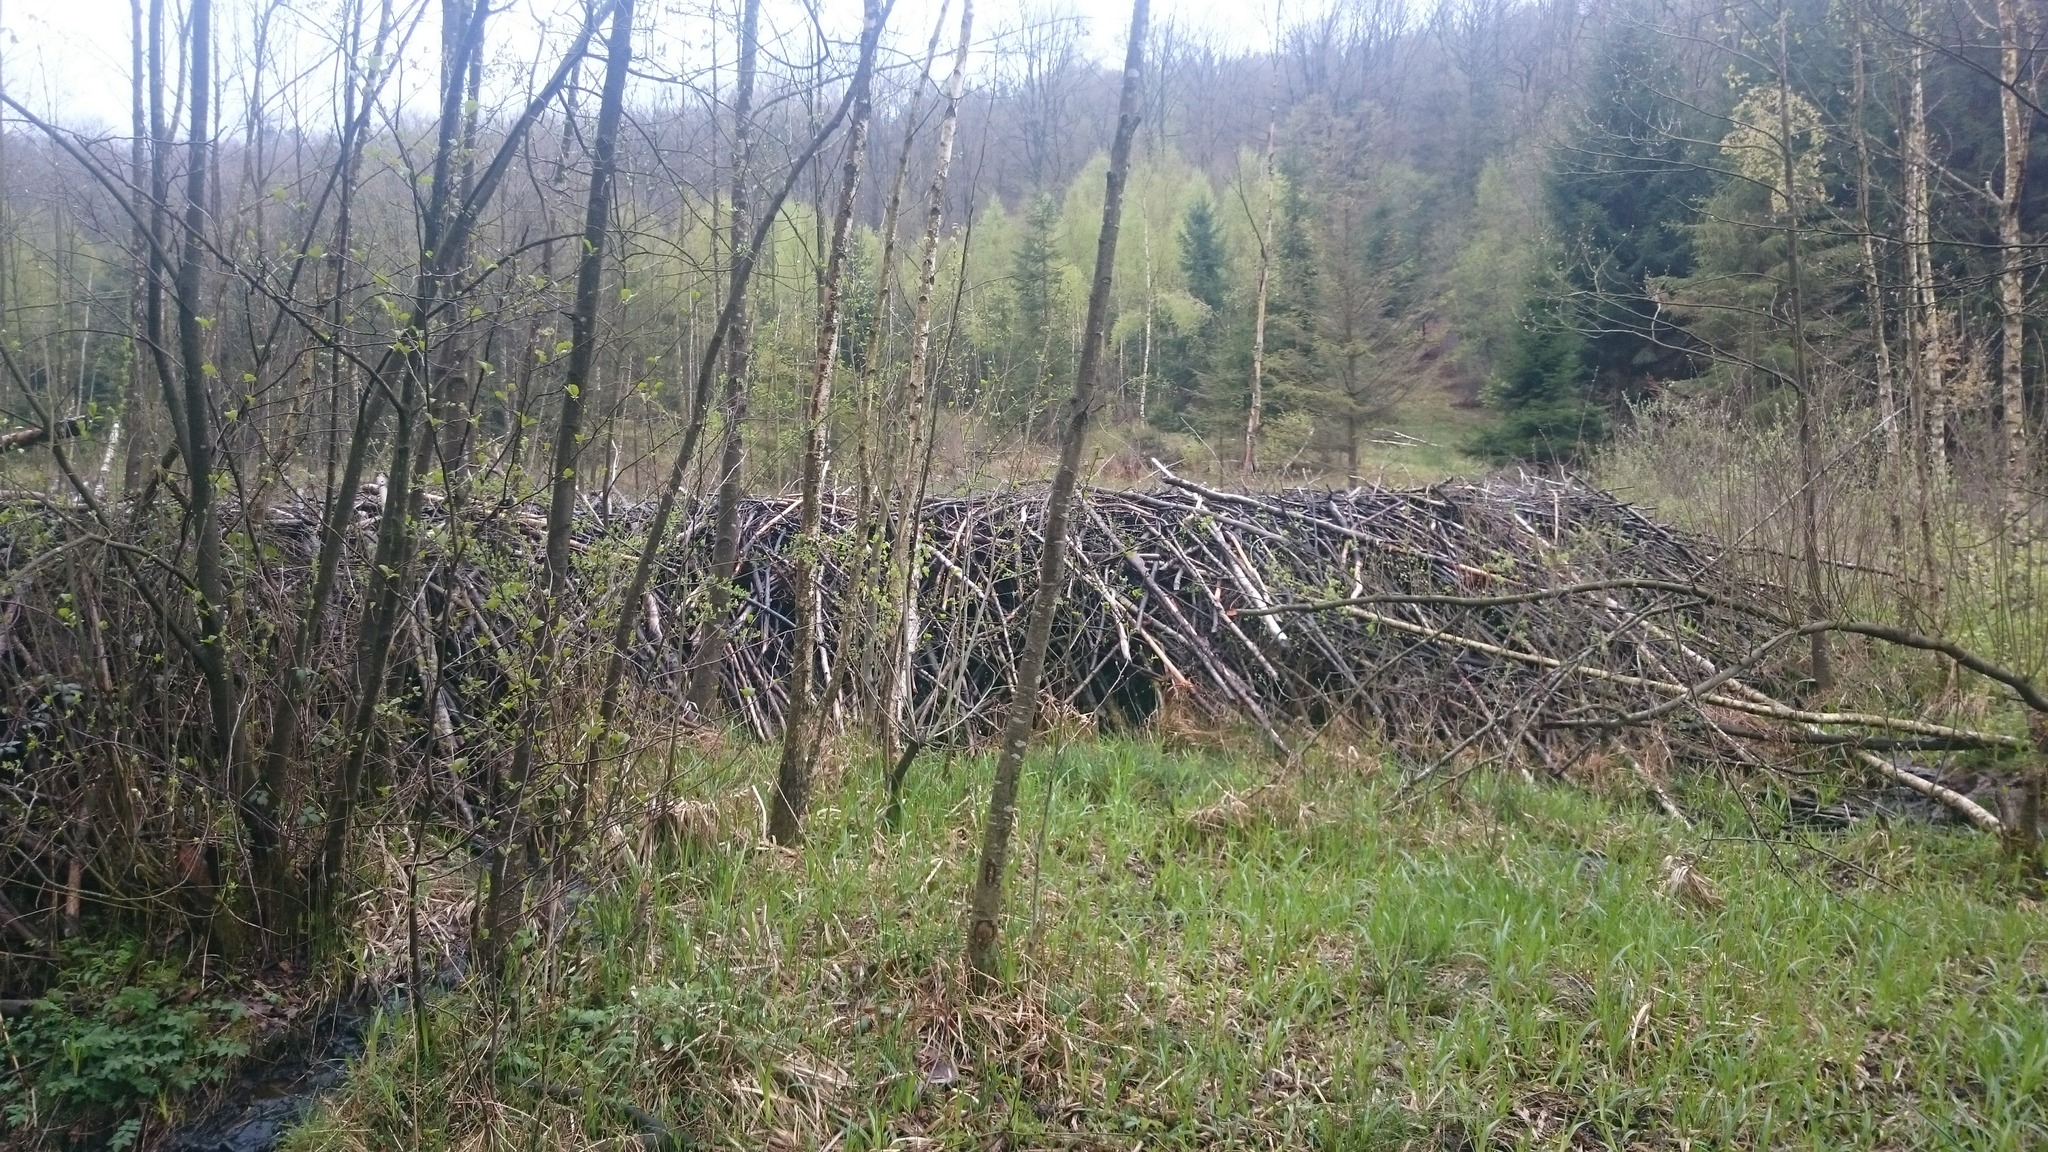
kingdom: Animalia
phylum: Chordata
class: Mammalia
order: Rodentia
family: Castoridae
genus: Castor
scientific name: Castor fiber
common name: Eurasian beaver
